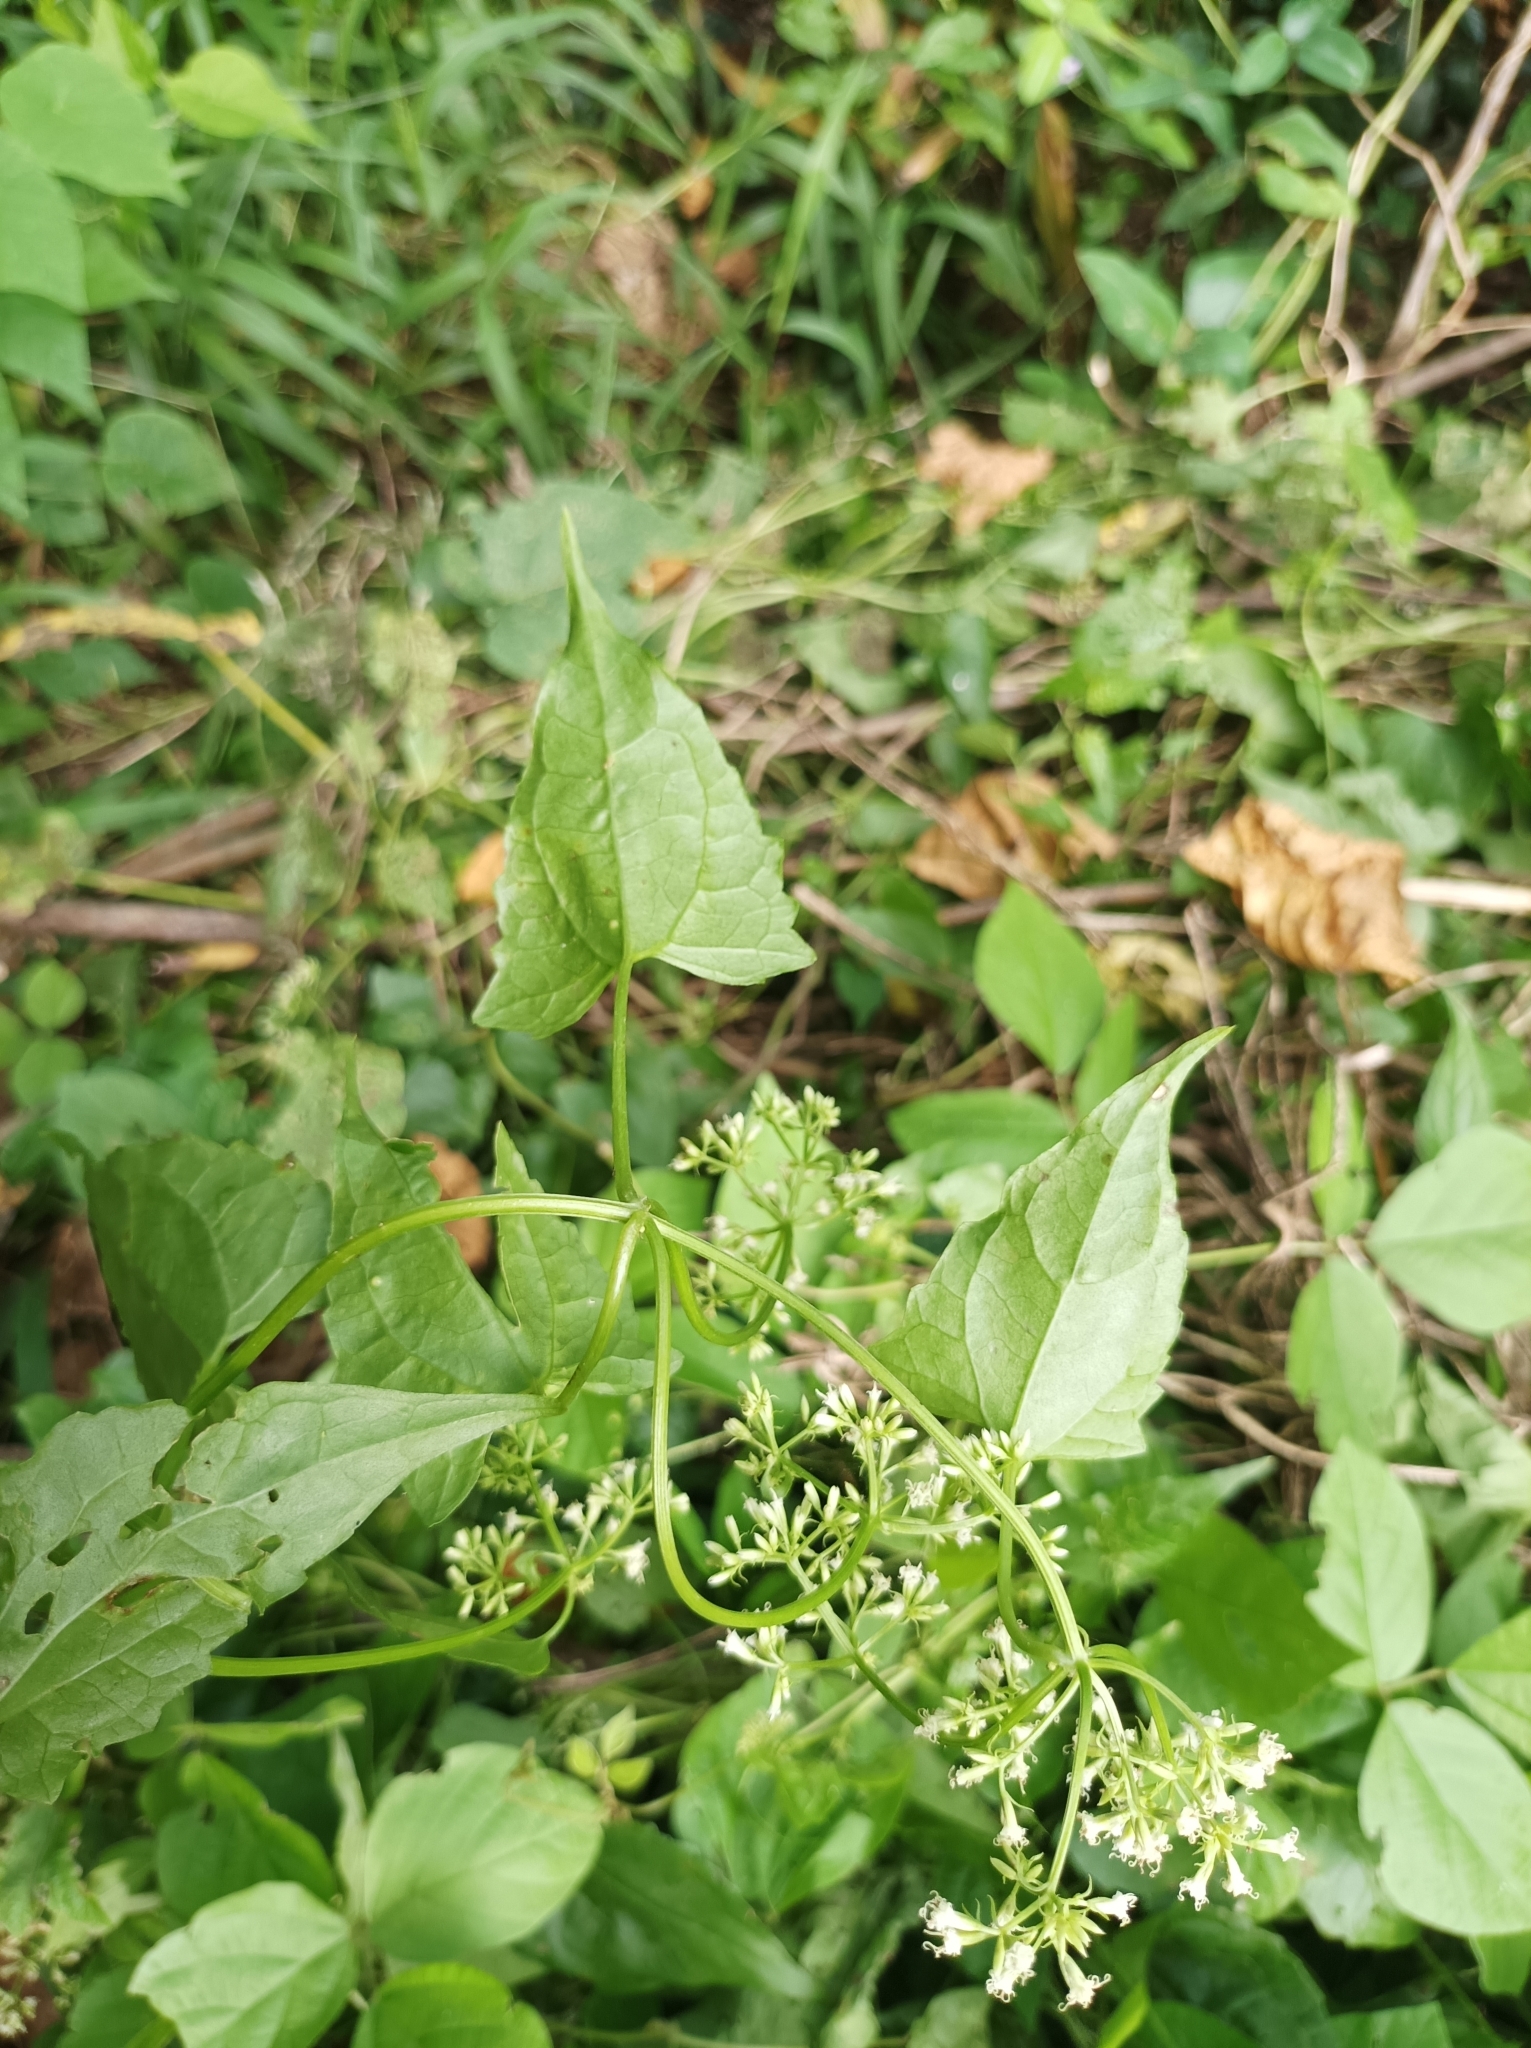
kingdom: Plantae
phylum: Tracheophyta
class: Magnoliopsida
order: Asterales
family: Asteraceae
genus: Mikania
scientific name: Mikania micrantha
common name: Mile-a-minute
